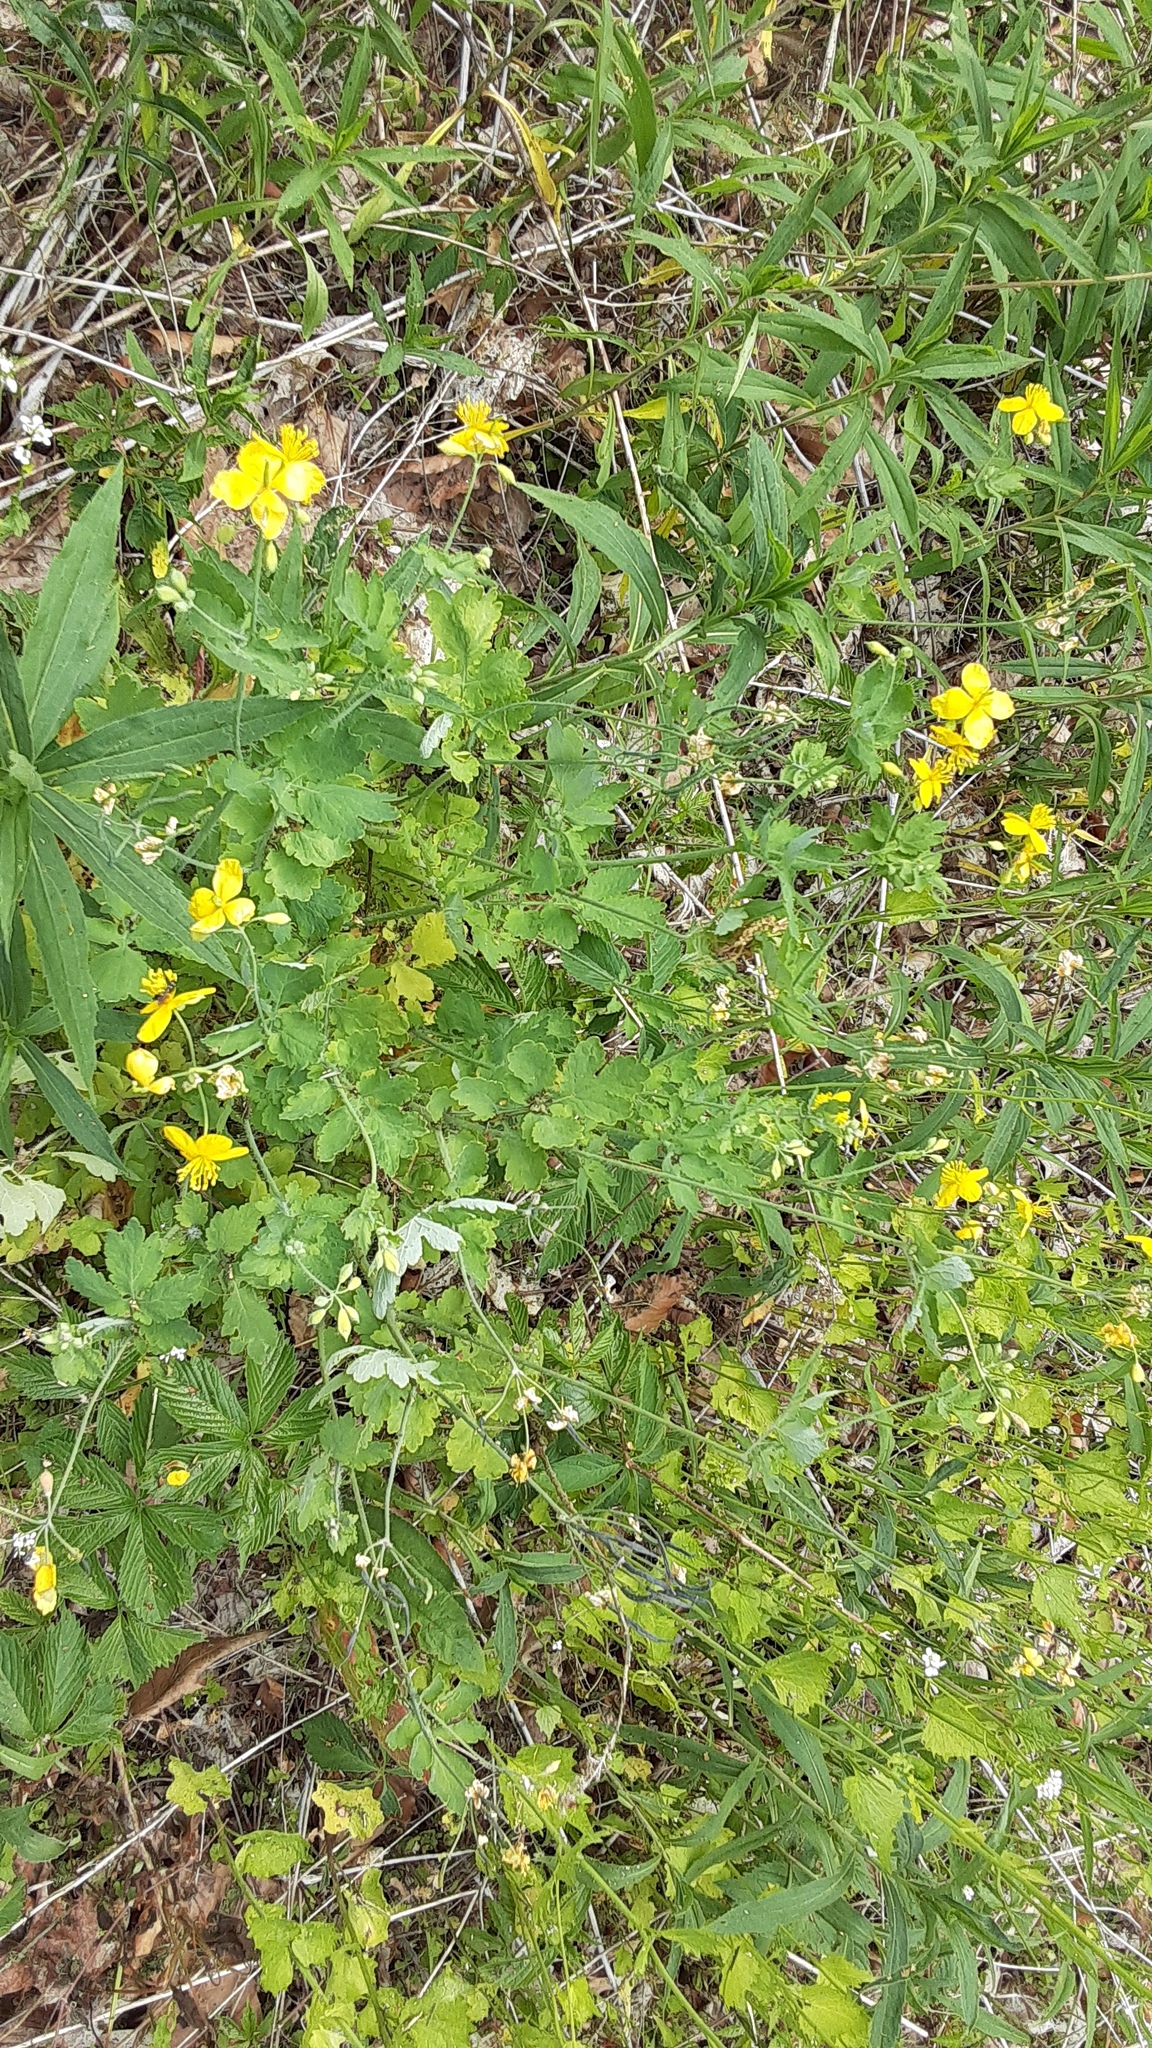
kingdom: Plantae
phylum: Tracheophyta
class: Magnoliopsida
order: Ranunculales
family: Papaveraceae
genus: Chelidonium
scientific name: Chelidonium majus
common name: Greater celandine
